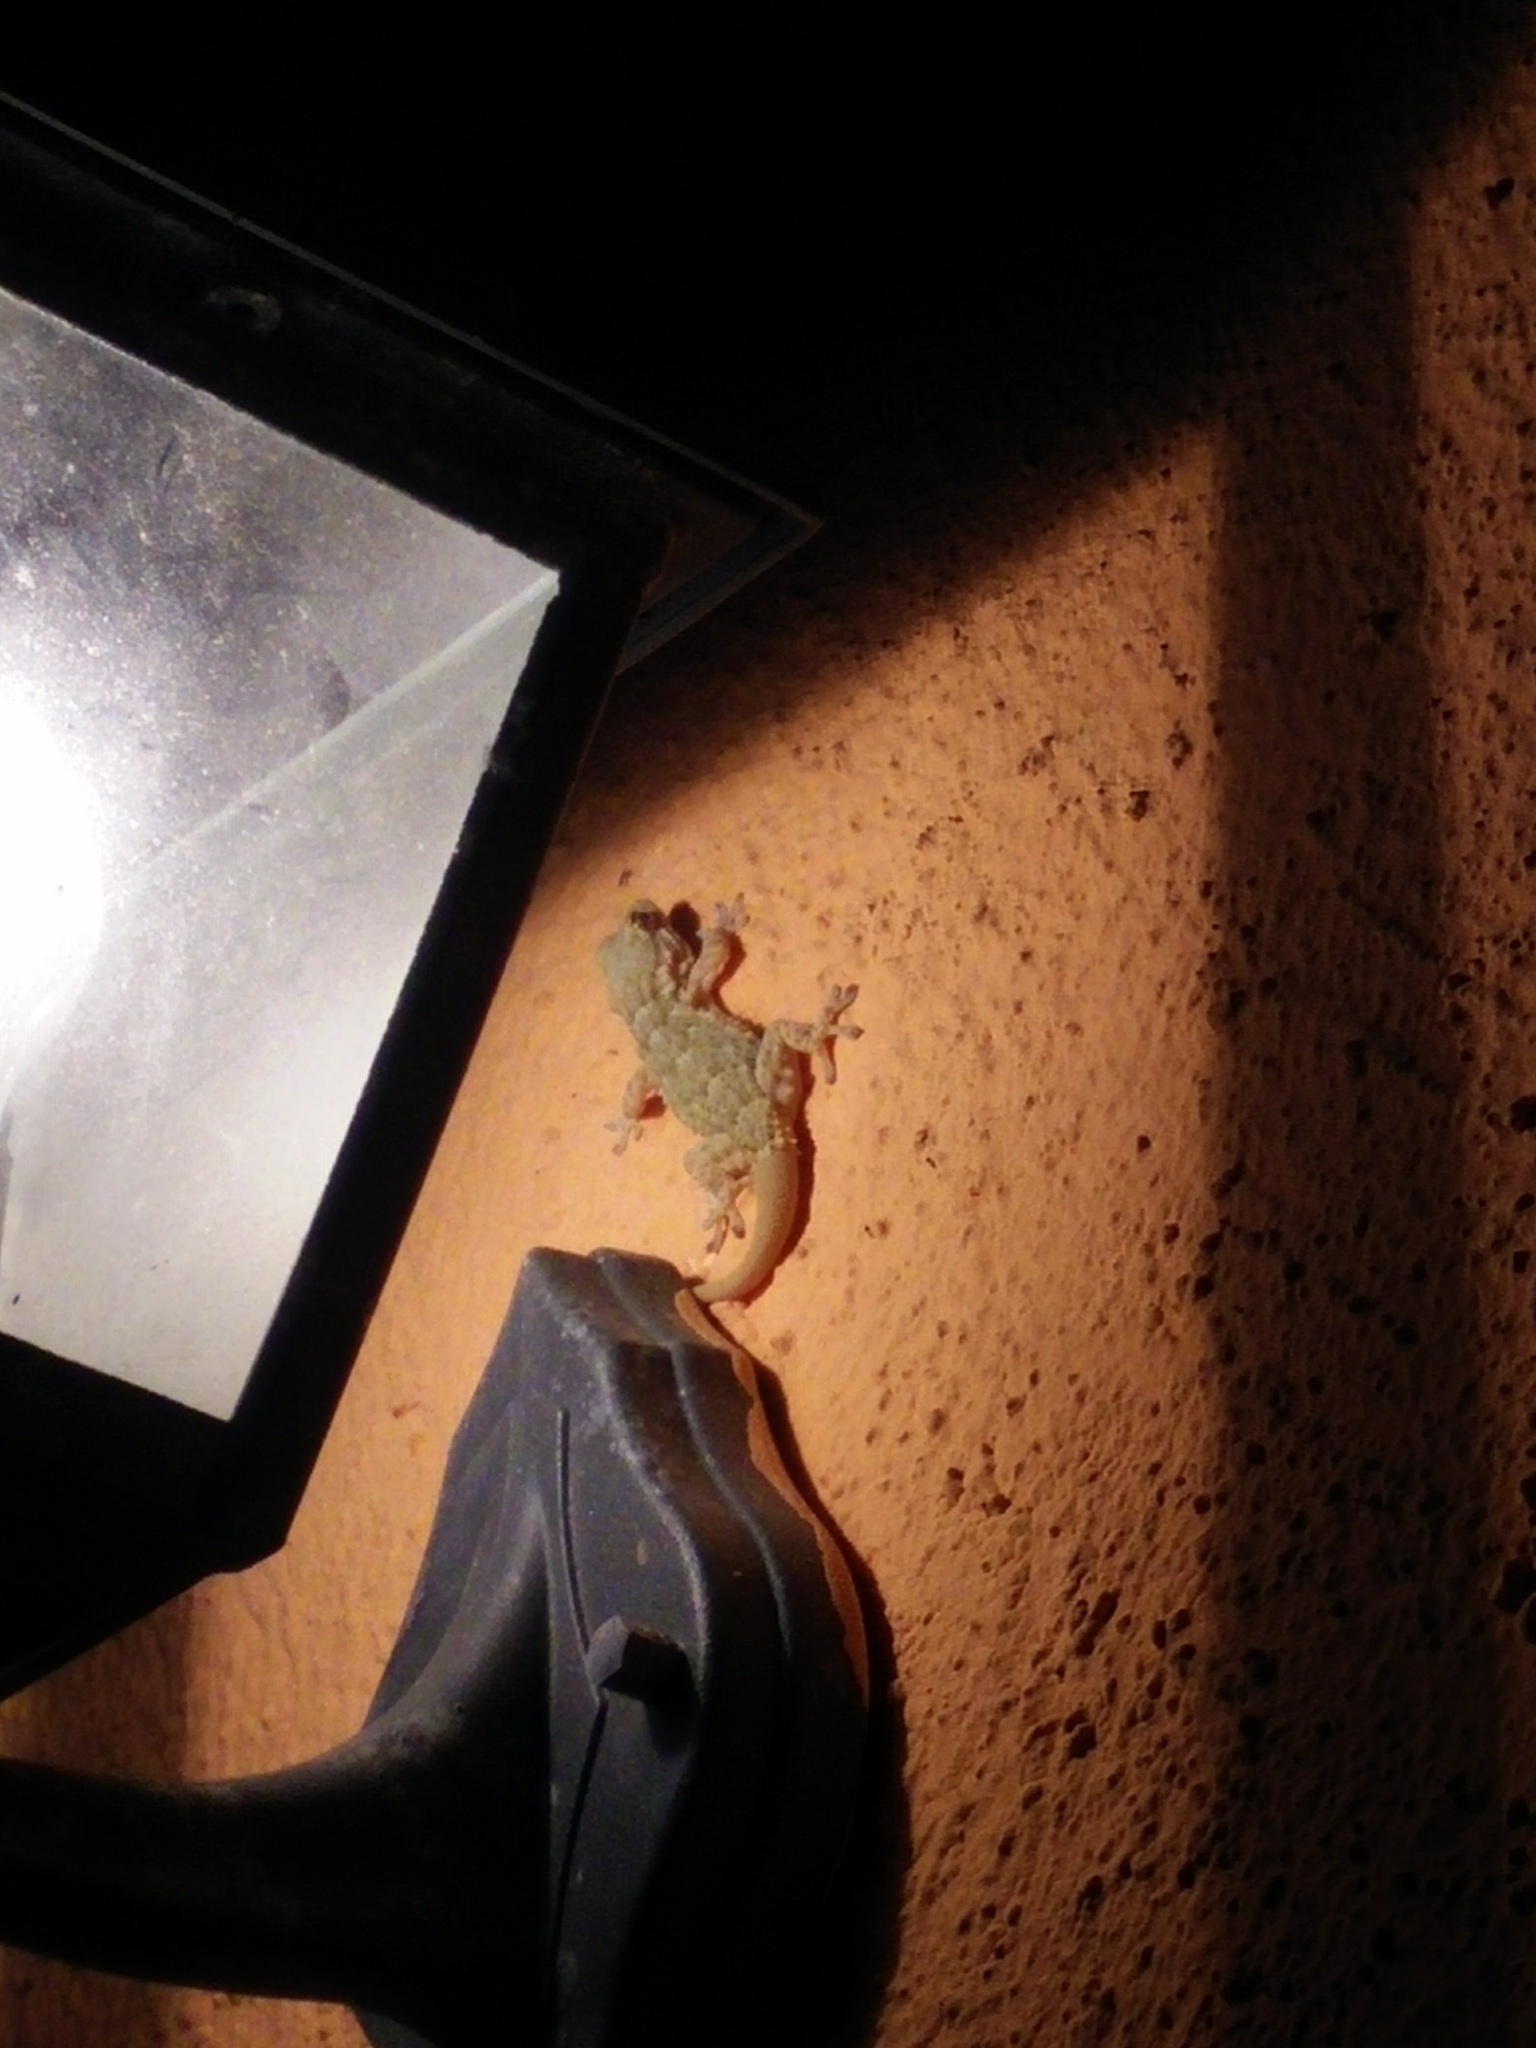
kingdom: Animalia
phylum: Chordata
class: Squamata
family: Phyllodactylidae
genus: Tarentola
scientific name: Tarentola mauritanica
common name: Moorish gecko
